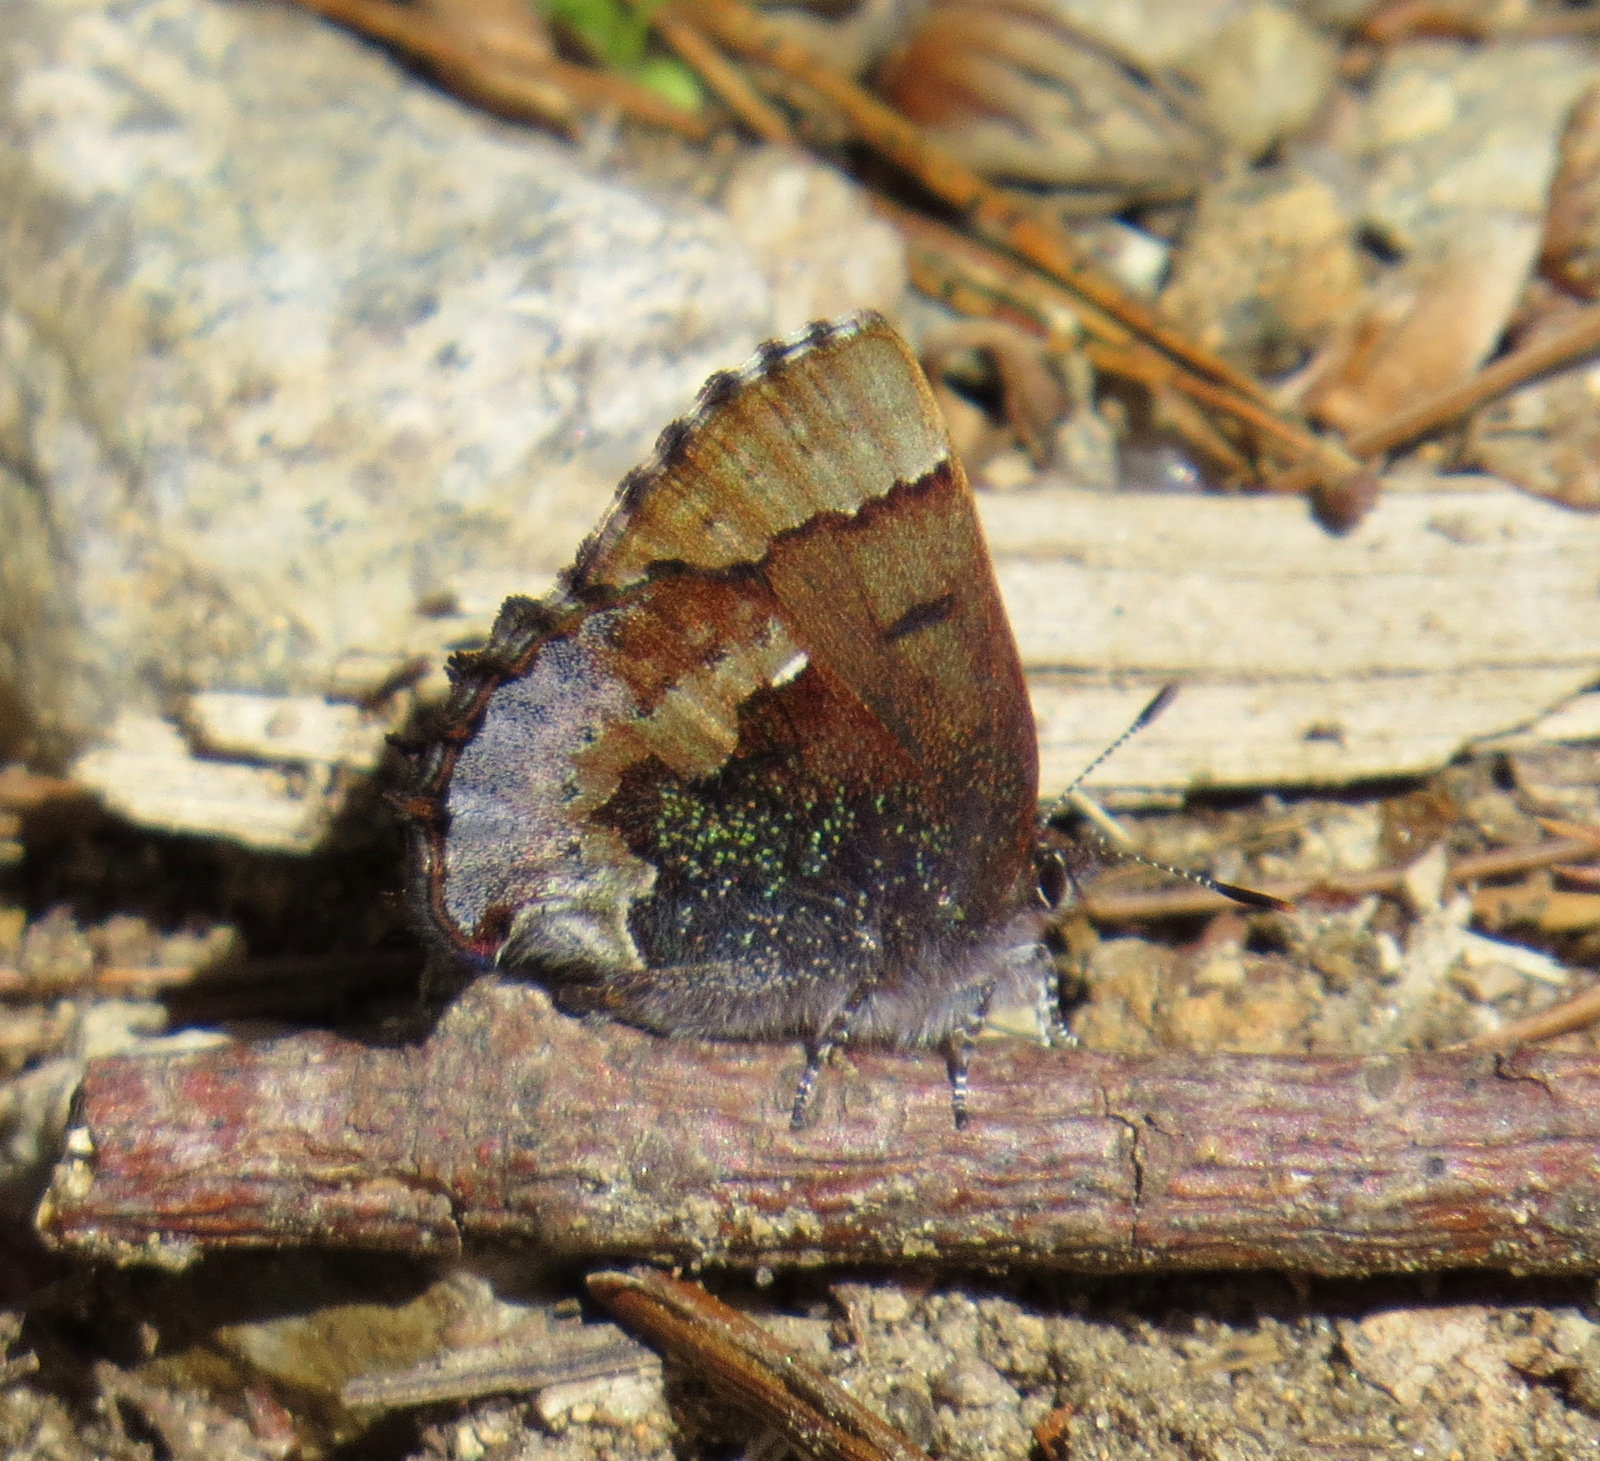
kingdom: Animalia
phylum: Arthropoda
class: Insecta
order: Lepidoptera
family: Lycaenidae
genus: Incisalia
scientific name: Incisalia henrici
